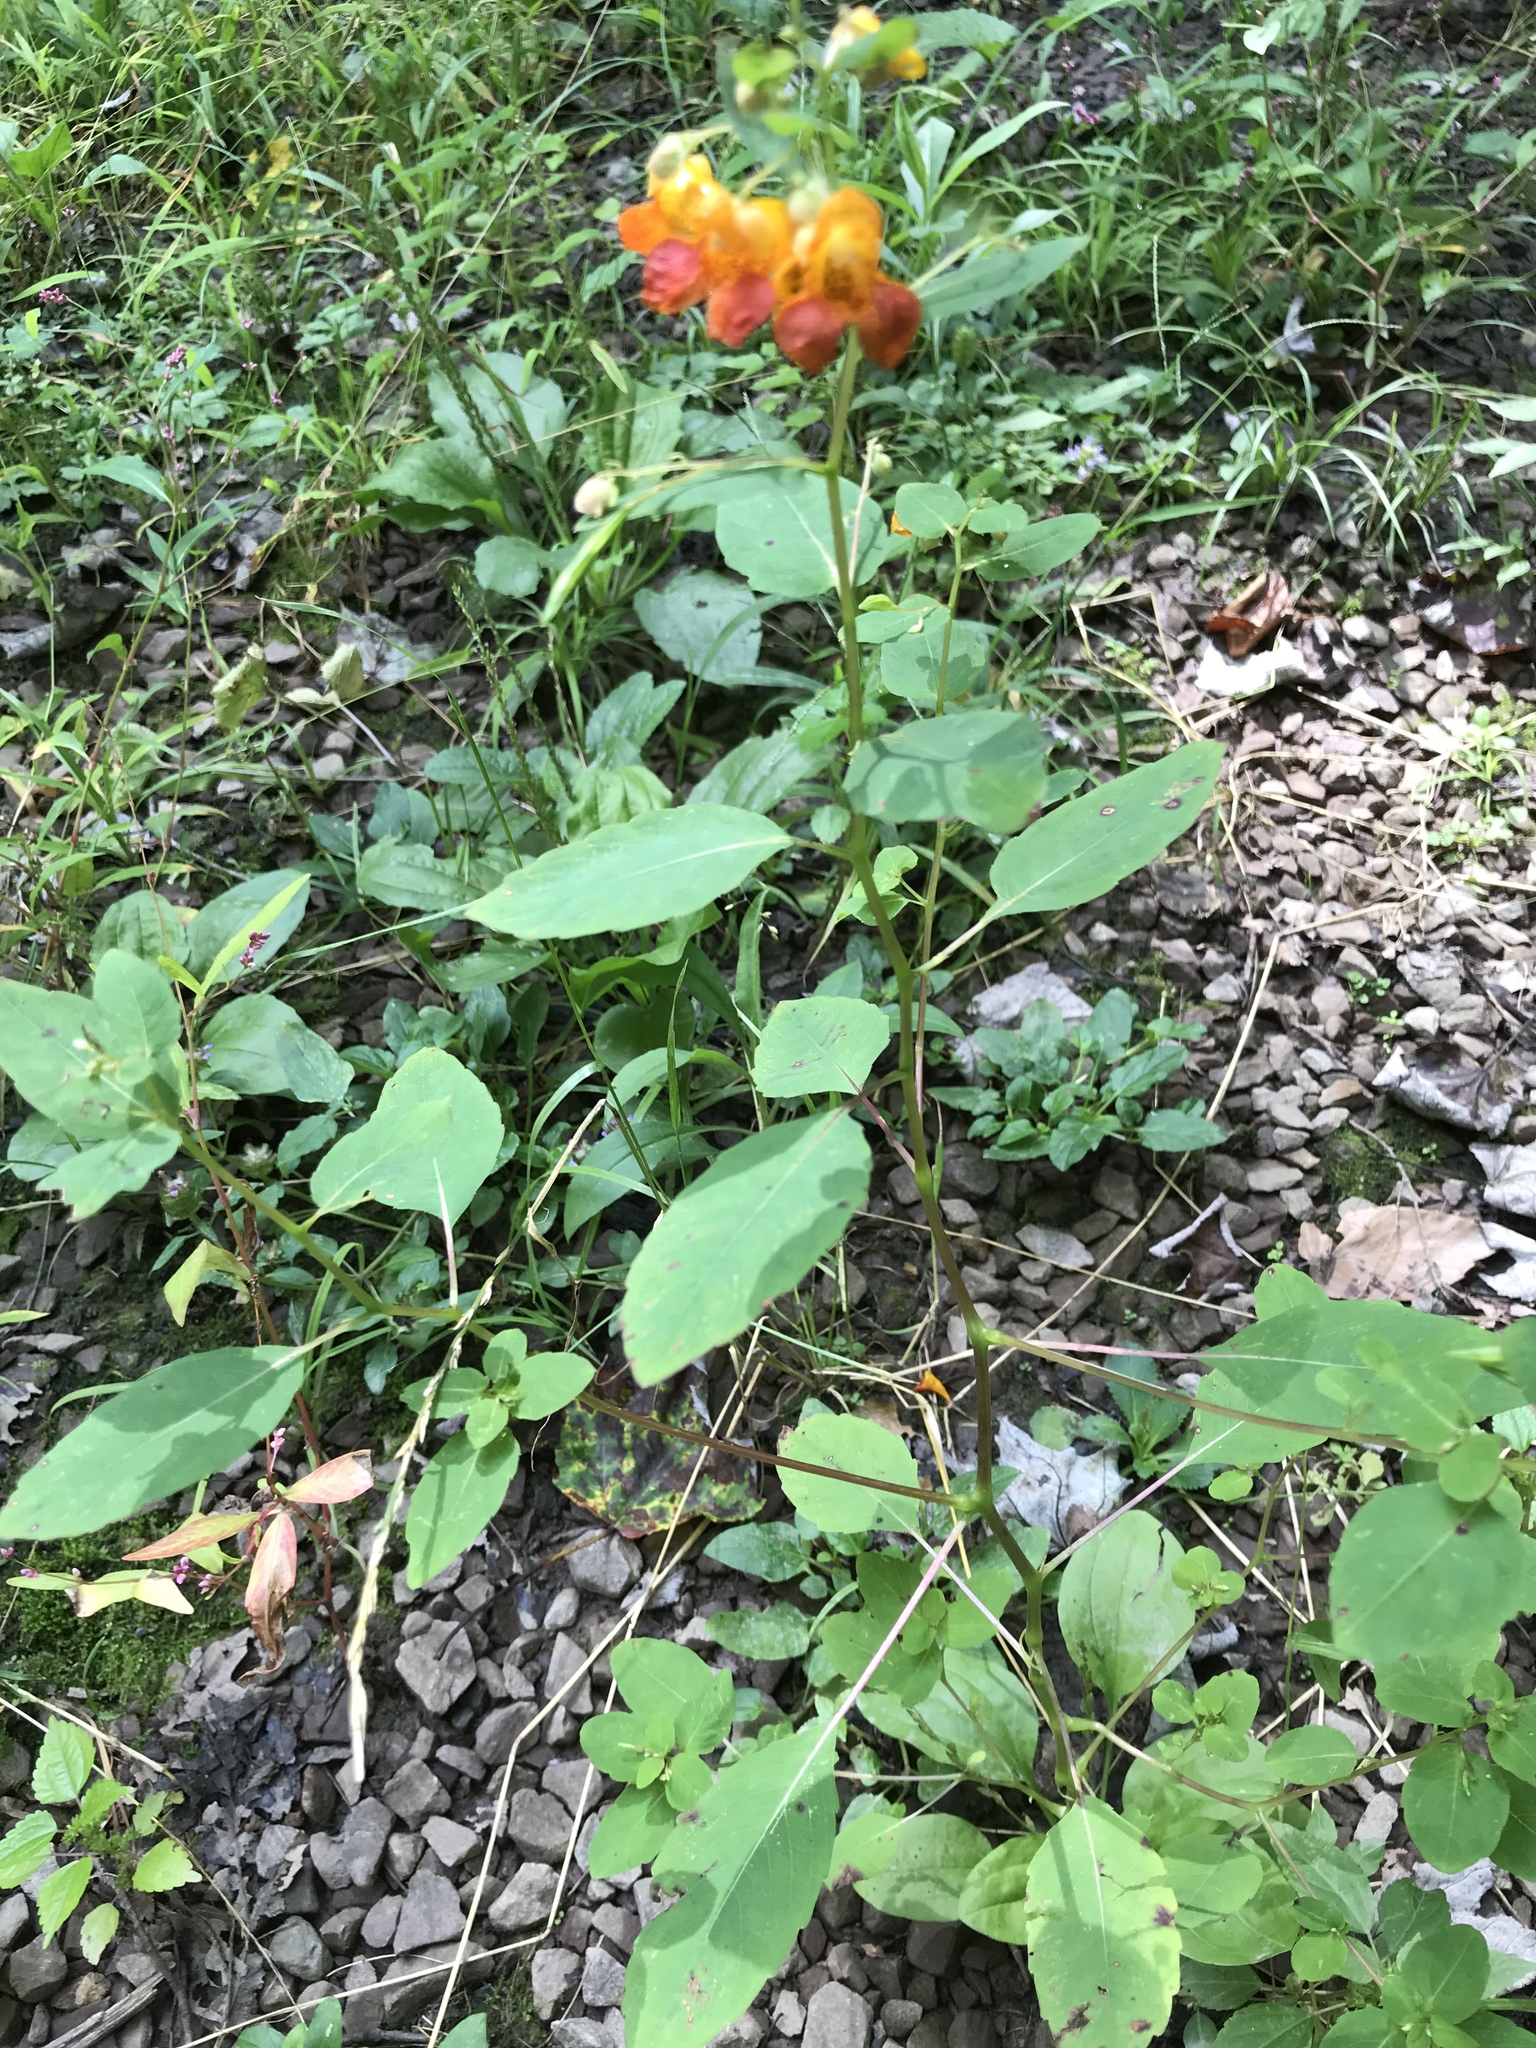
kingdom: Plantae
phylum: Tracheophyta
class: Magnoliopsida
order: Ericales
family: Balsaminaceae
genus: Impatiens
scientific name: Impatiens capensis
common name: Orange balsam
